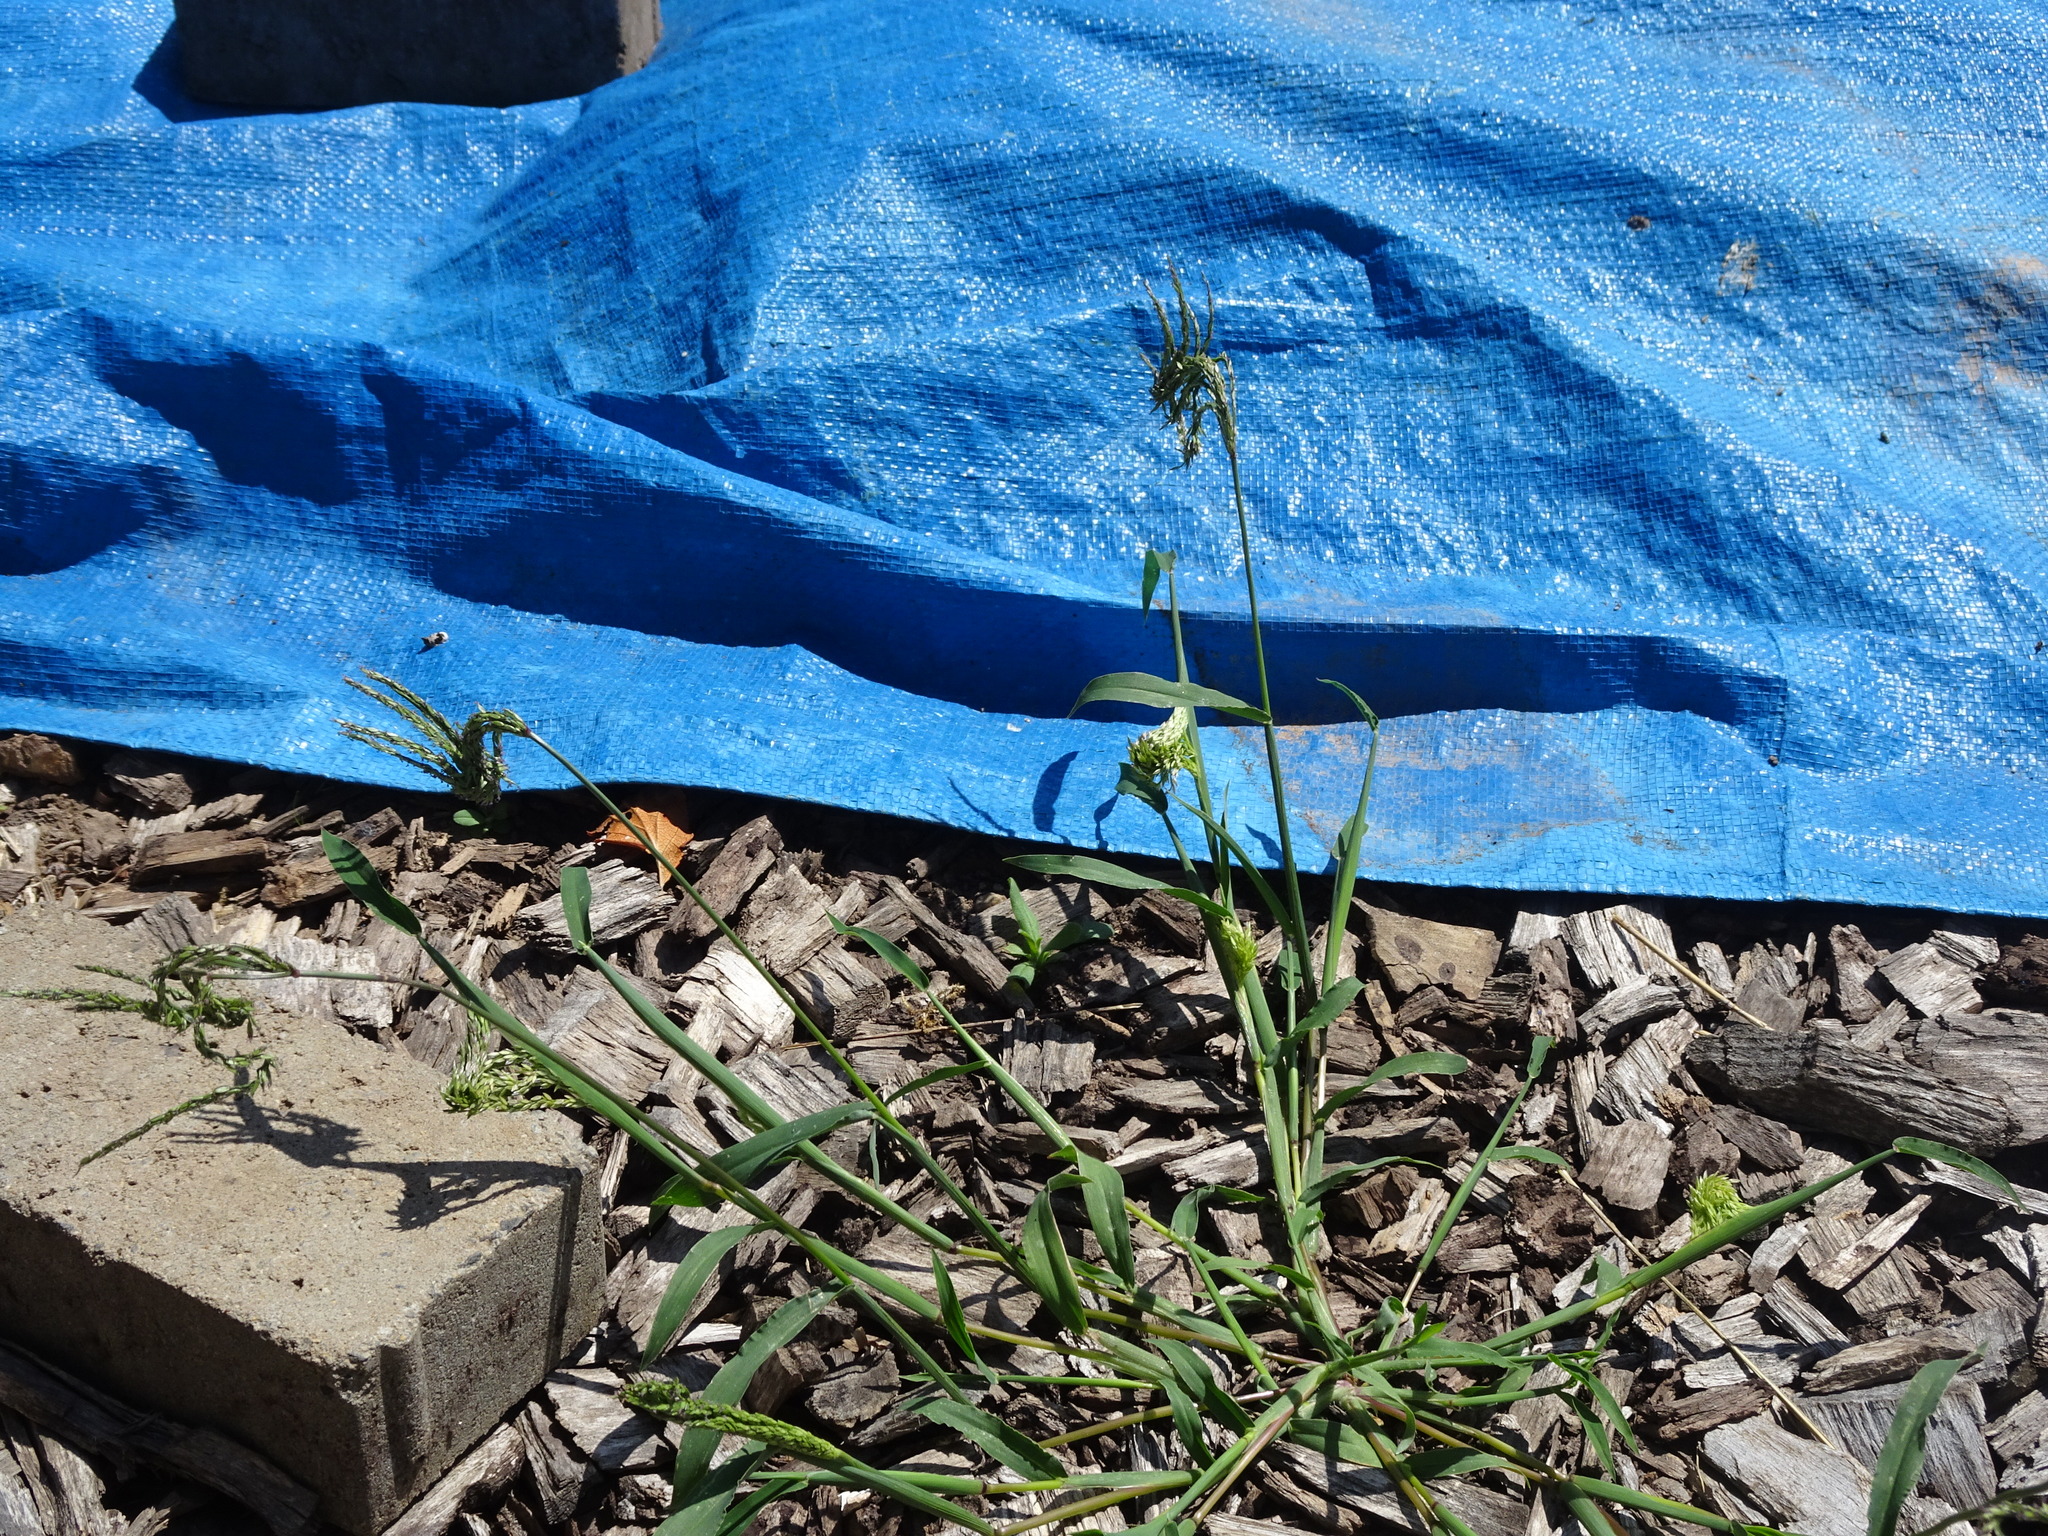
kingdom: Plantae
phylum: Tracheophyta
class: Liliopsida
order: Poales
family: Poaceae
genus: Digitaria
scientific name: Digitaria sanguinalis
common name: Hairy crabgrass
